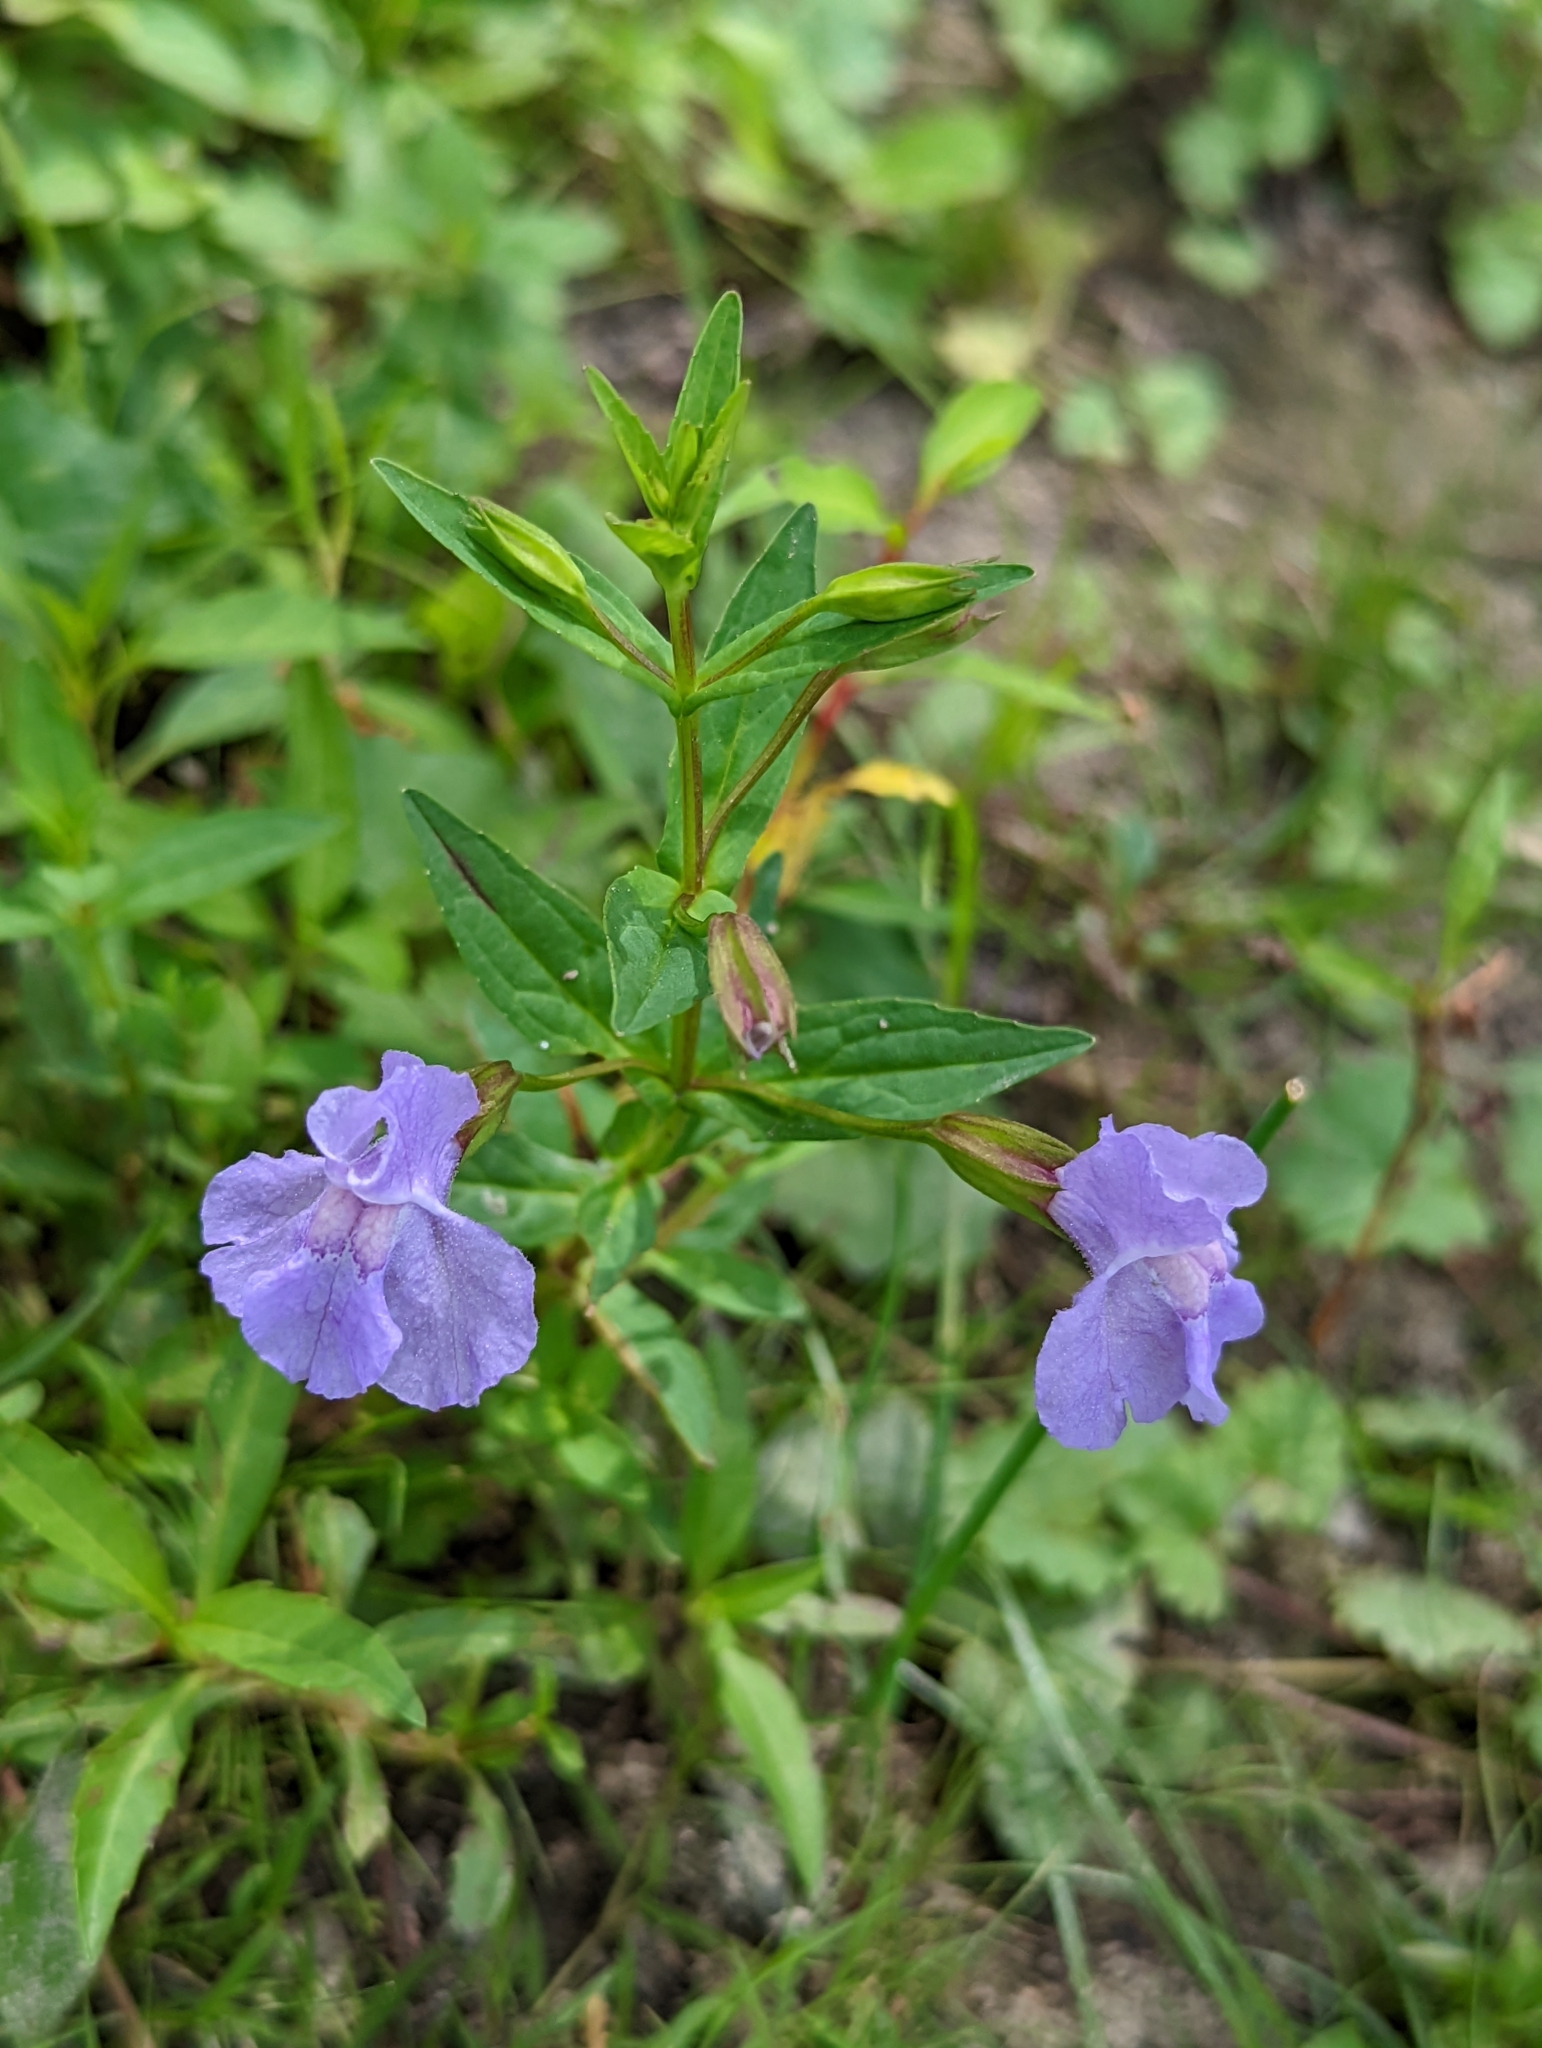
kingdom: Plantae
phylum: Tracheophyta
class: Magnoliopsida
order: Lamiales
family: Phrymaceae
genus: Mimulus
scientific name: Mimulus ringens
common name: Allegheny monkeyflower
